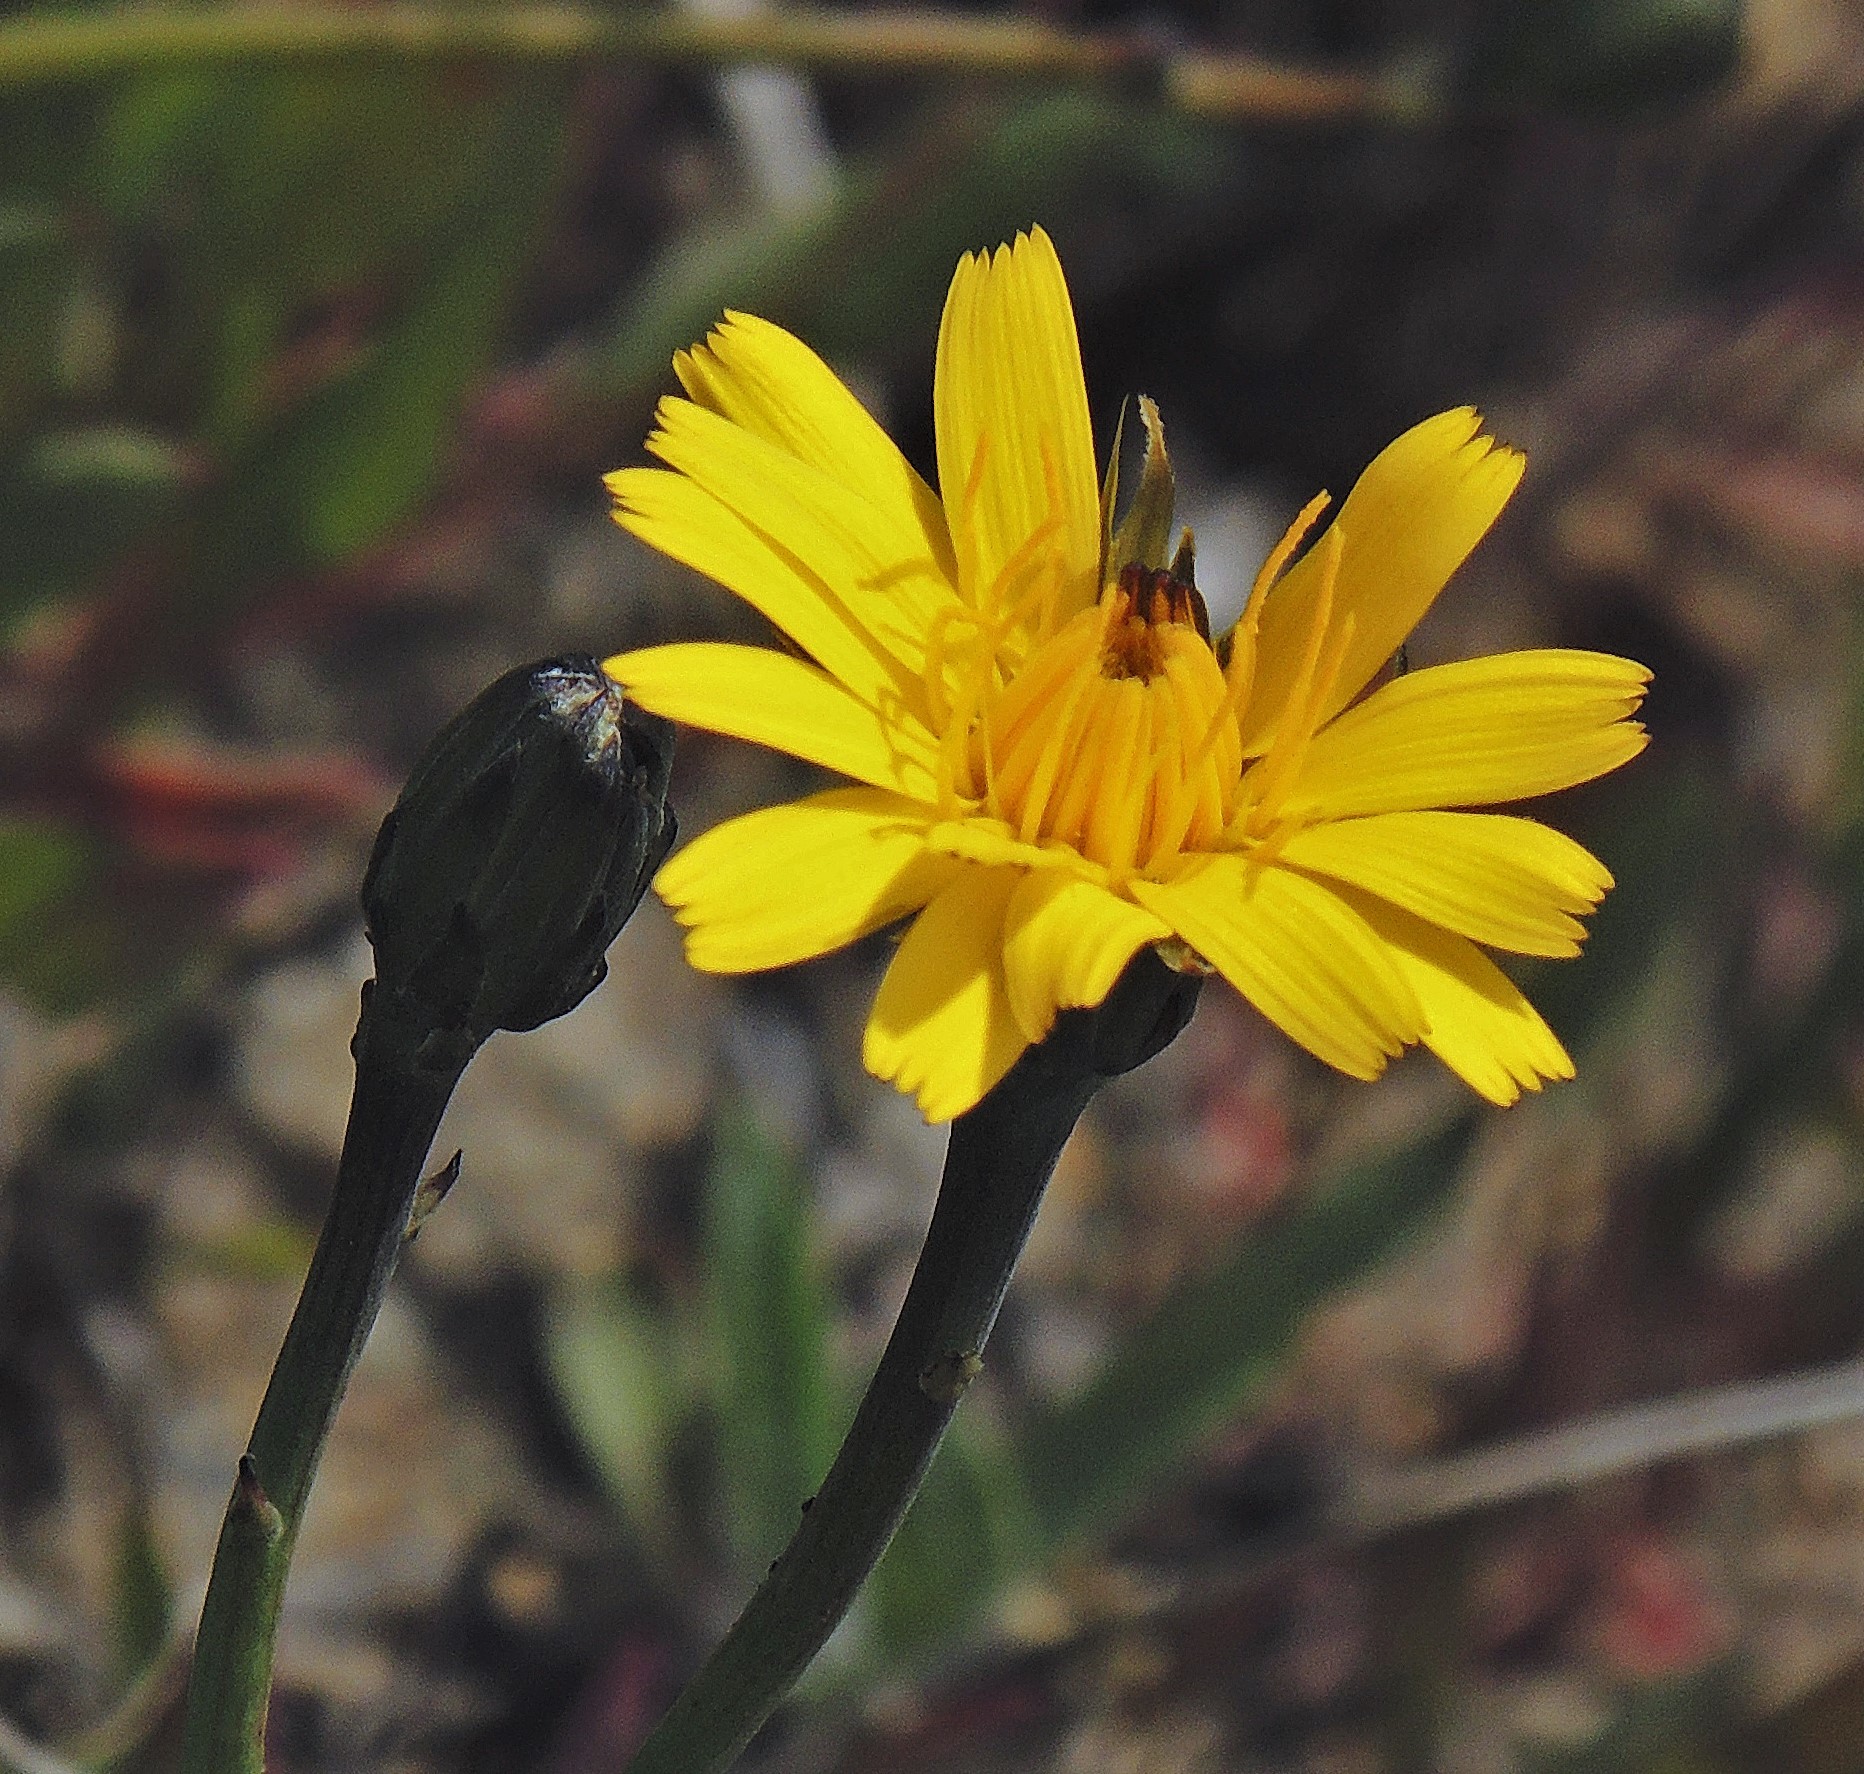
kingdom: Plantae
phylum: Tracheophyta
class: Magnoliopsida
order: Asterales
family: Asteraceae
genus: Hypochaeris
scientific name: Hypochaeris radicata
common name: Flatweed
